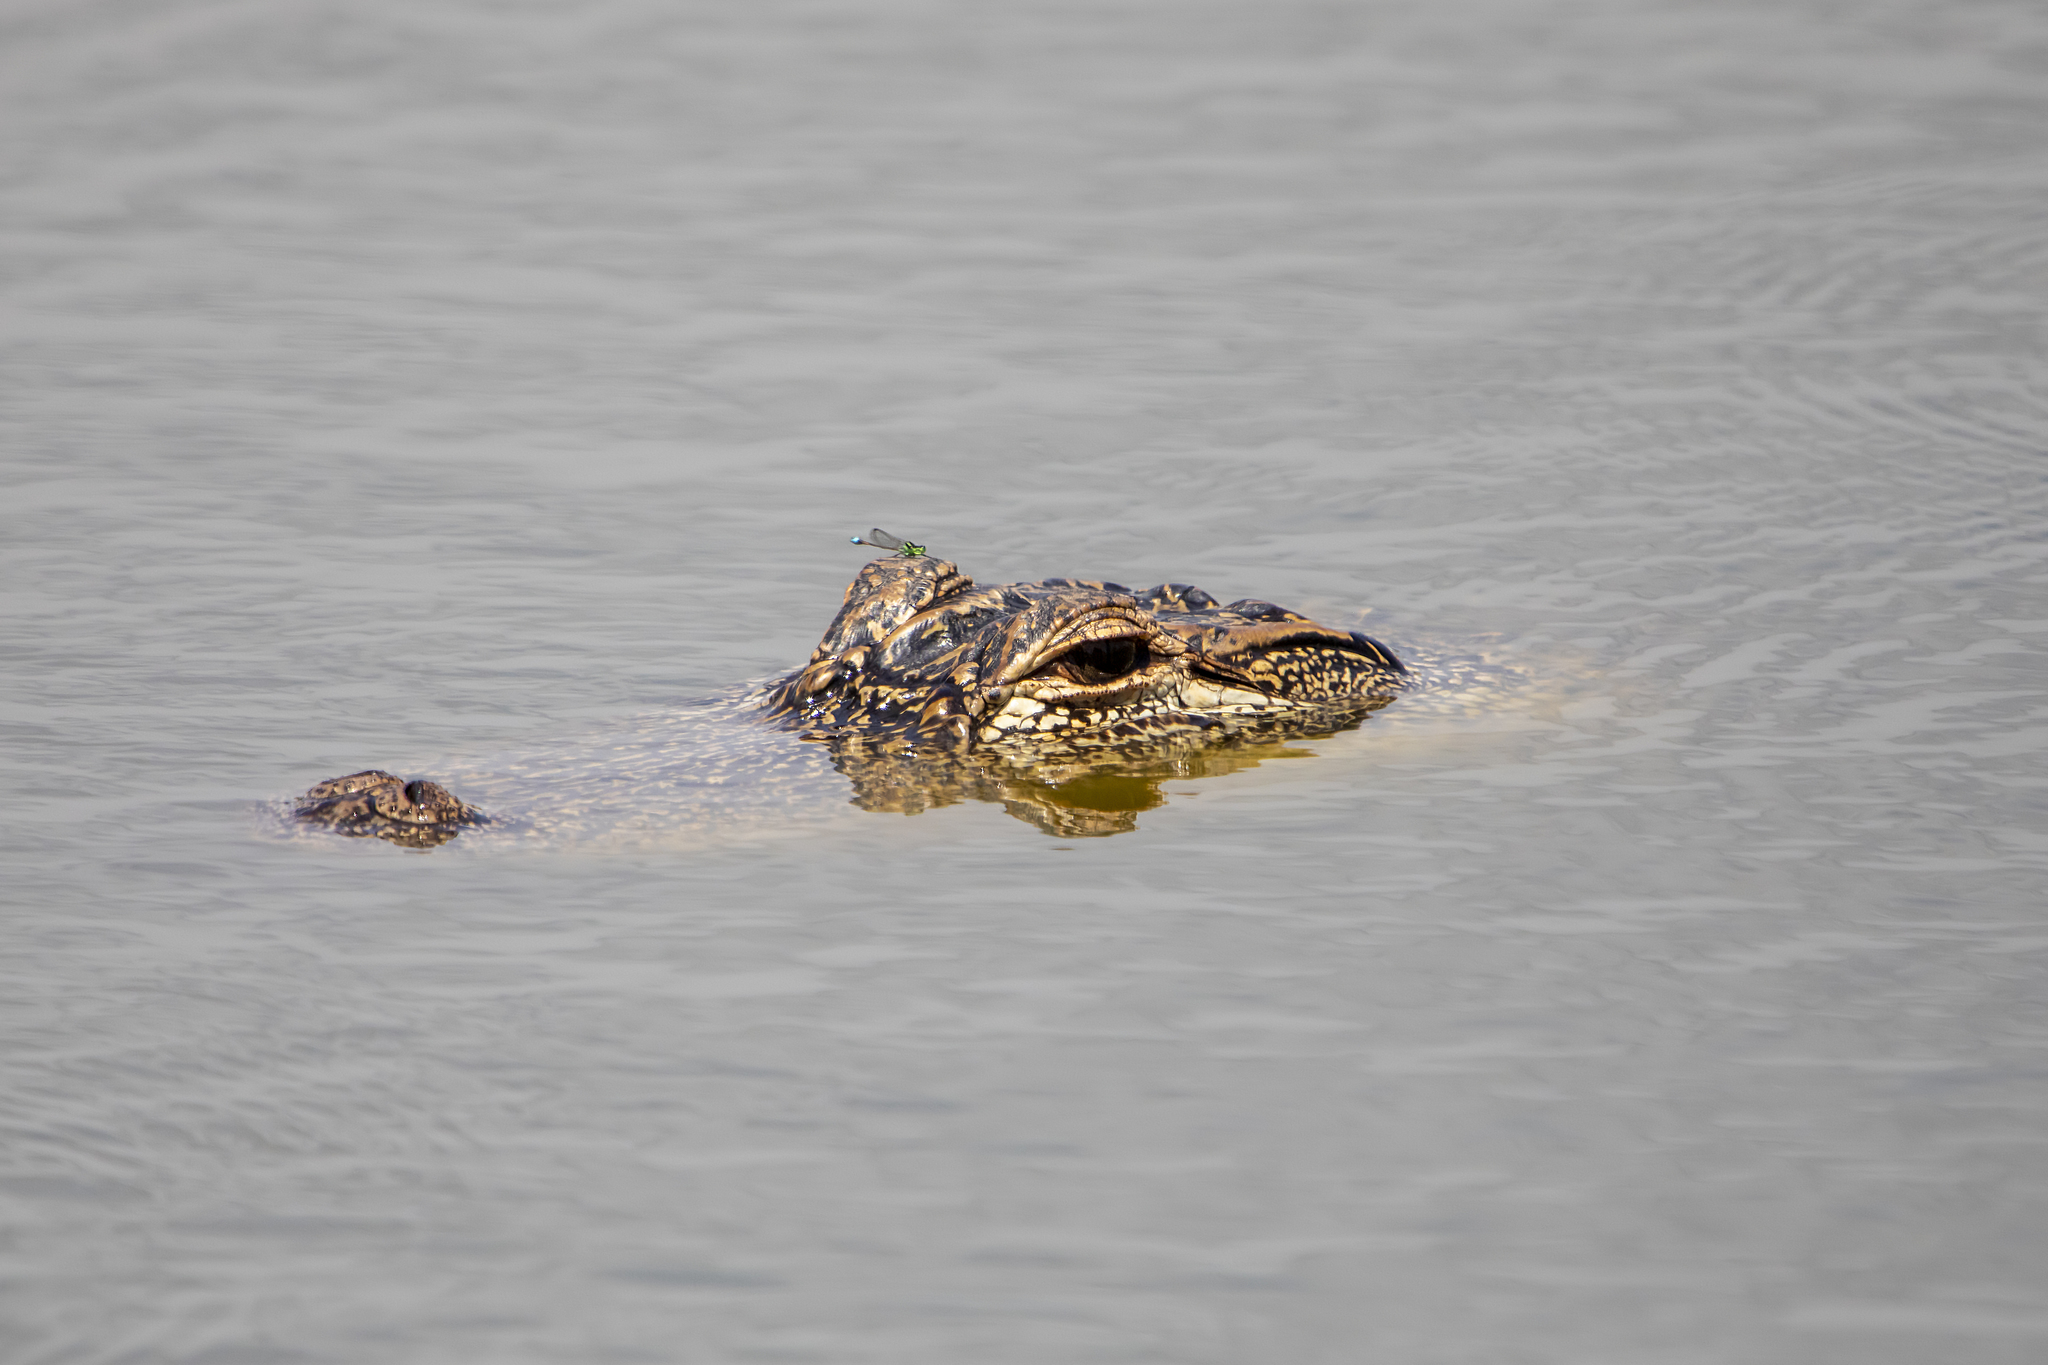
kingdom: Animalia
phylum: Chordata
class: Crocodylia
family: Alligatoridae
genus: Alligator
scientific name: Alligator mississippiensis
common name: American alligator
